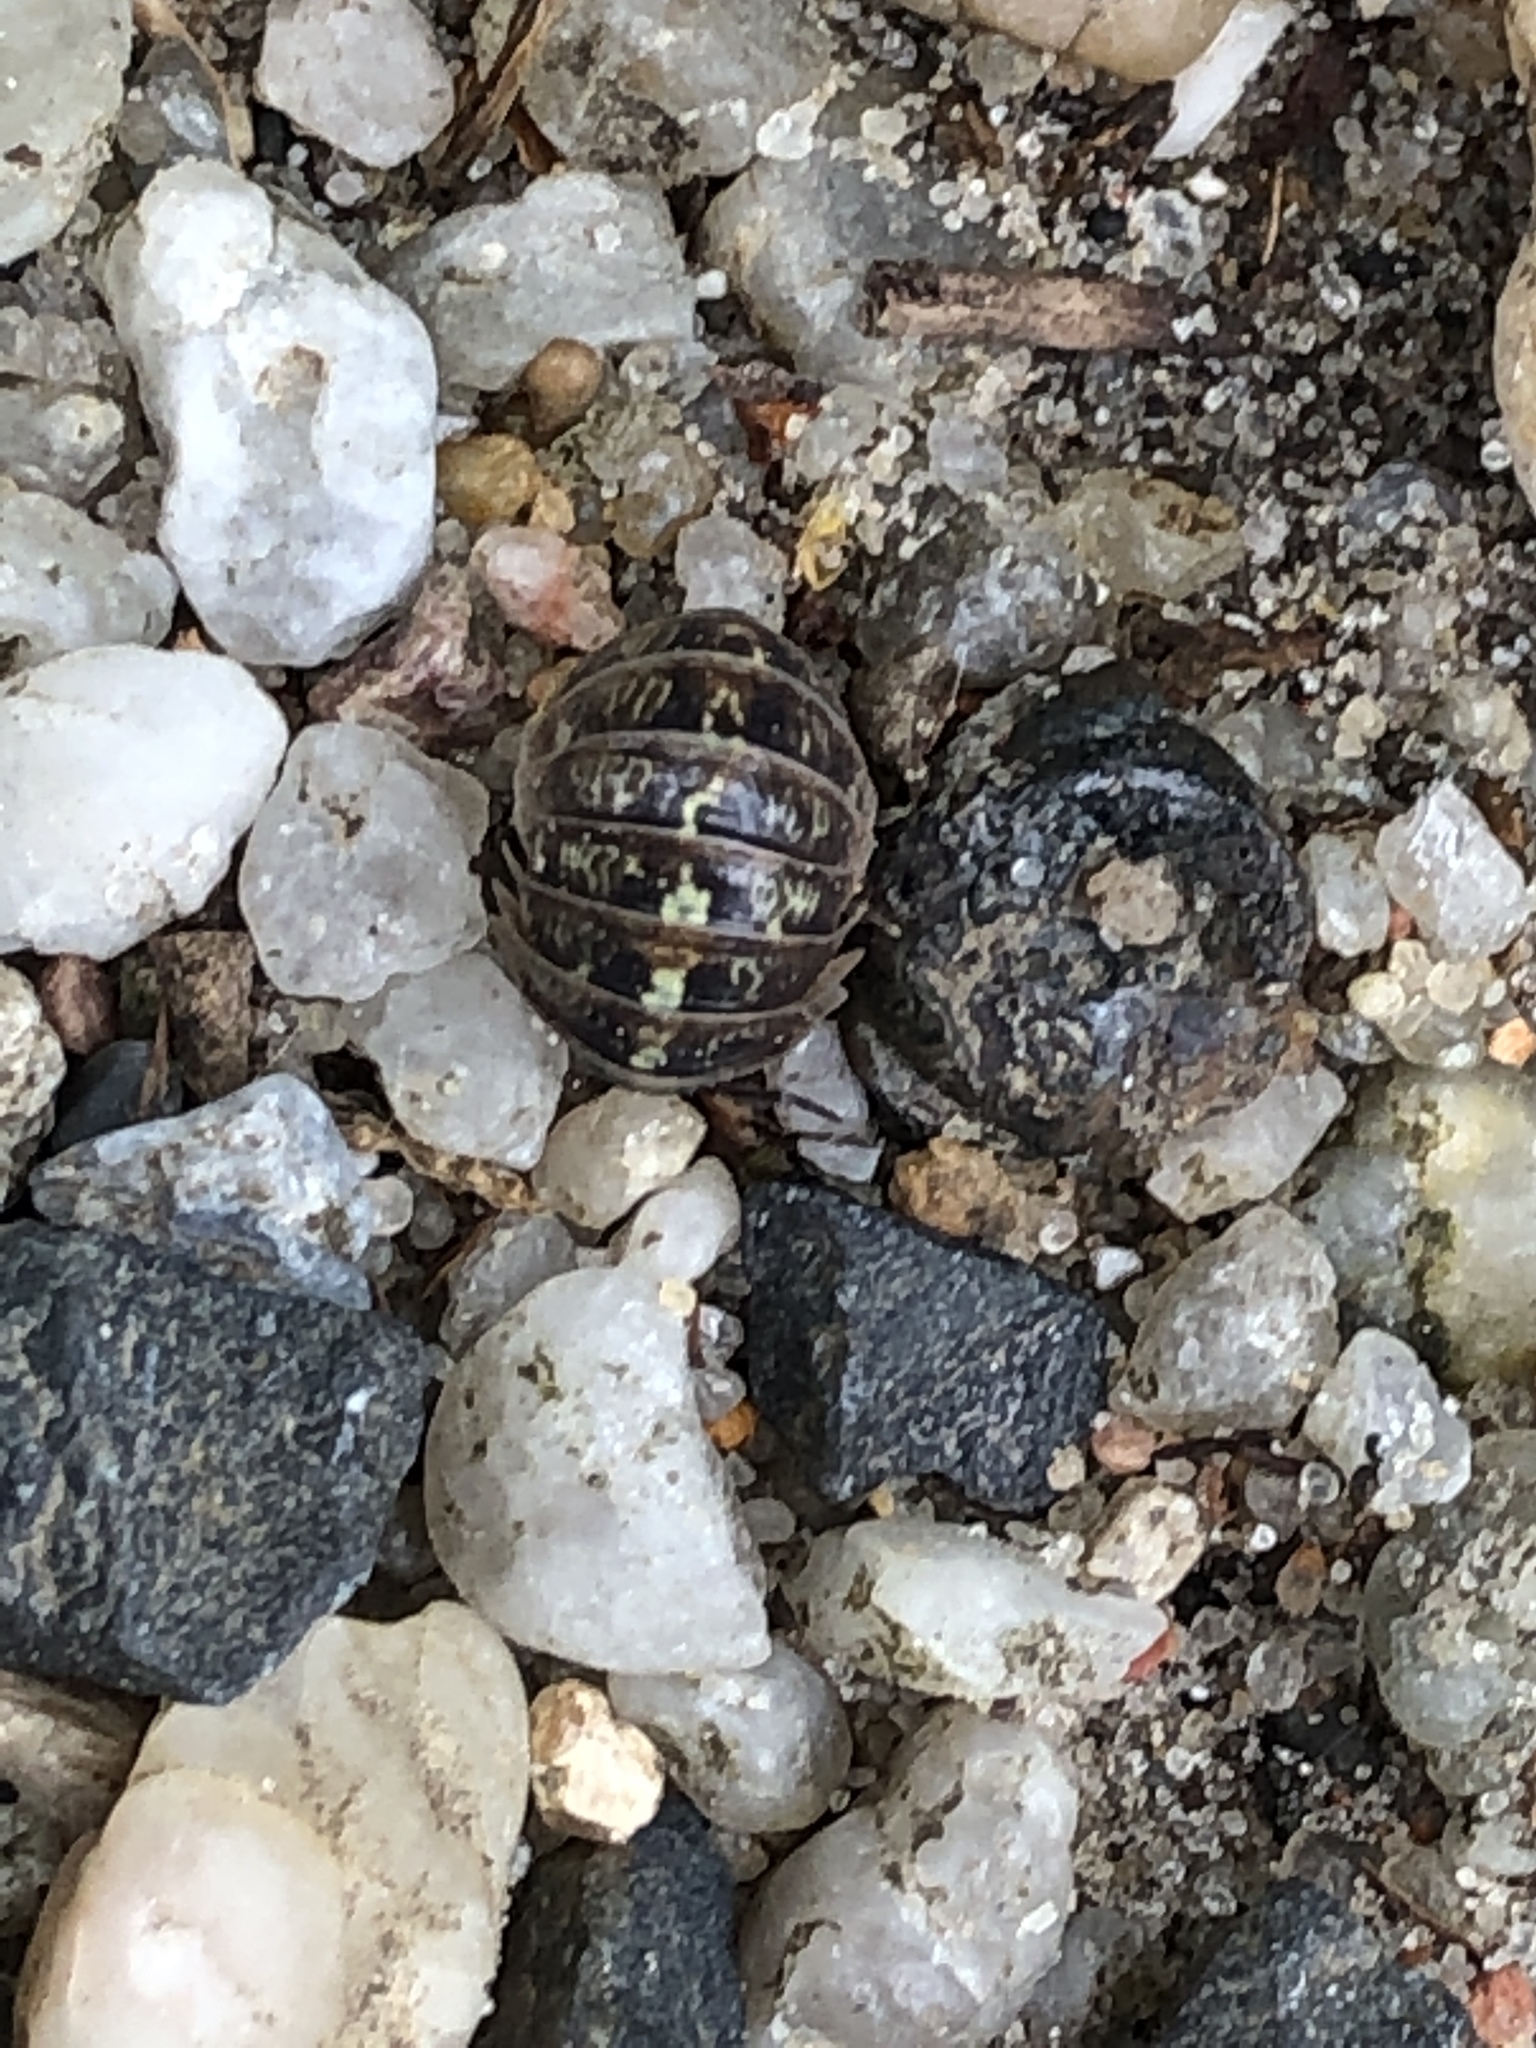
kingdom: Animalia
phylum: Arthropoda
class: Malacostraca
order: Isopoda
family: Armadillidiidae
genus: Armadillidium
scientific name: Armadillidium vulgare
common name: Common pill woodlouse
